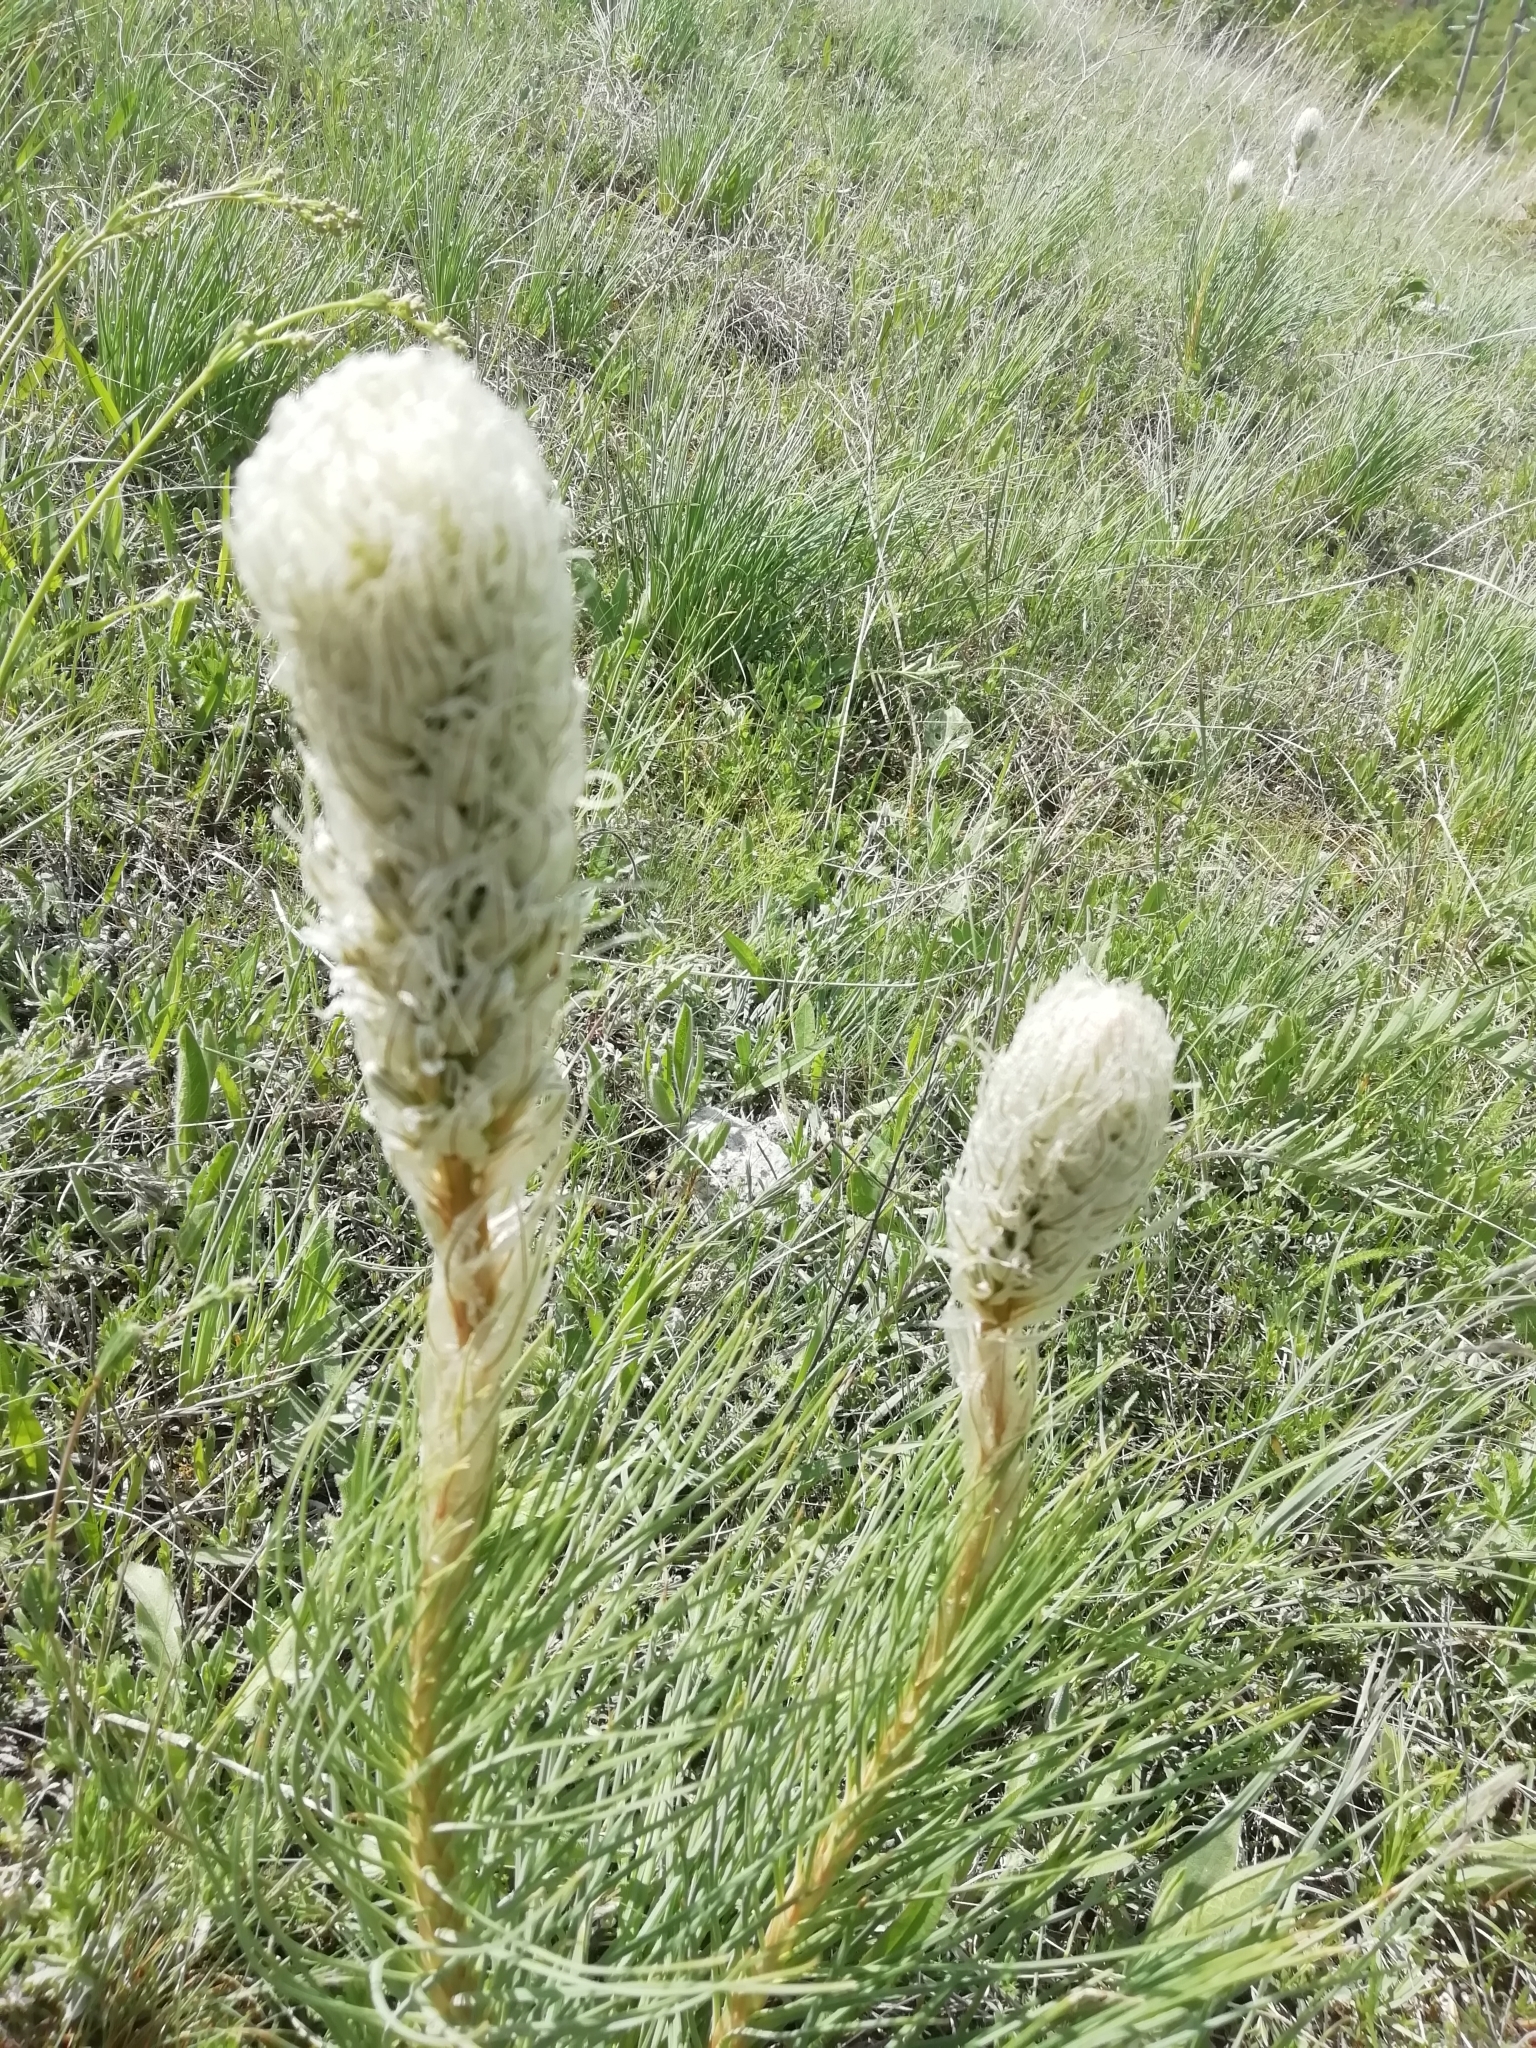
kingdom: Plantae
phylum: Tracheophyta
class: Liliopsida
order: Asparagales
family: Asphodelaceae
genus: Asphodeline
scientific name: Asphodeline taurica
